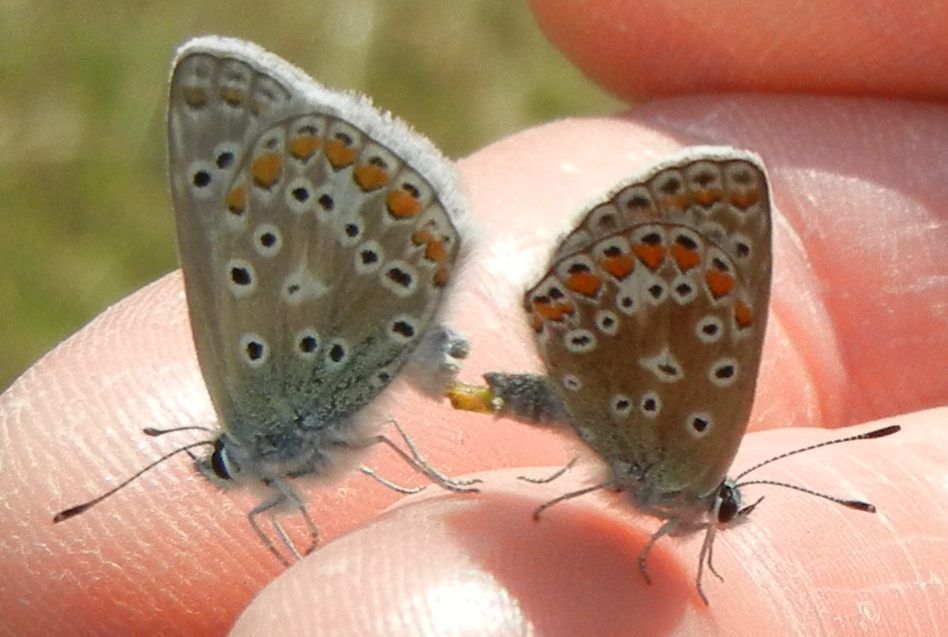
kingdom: Animalia
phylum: Arthropoda
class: Insecta
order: Lepidoptera
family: Lycaenidae
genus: Polyommatus
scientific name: Polyommatus icarus
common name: Common blue
